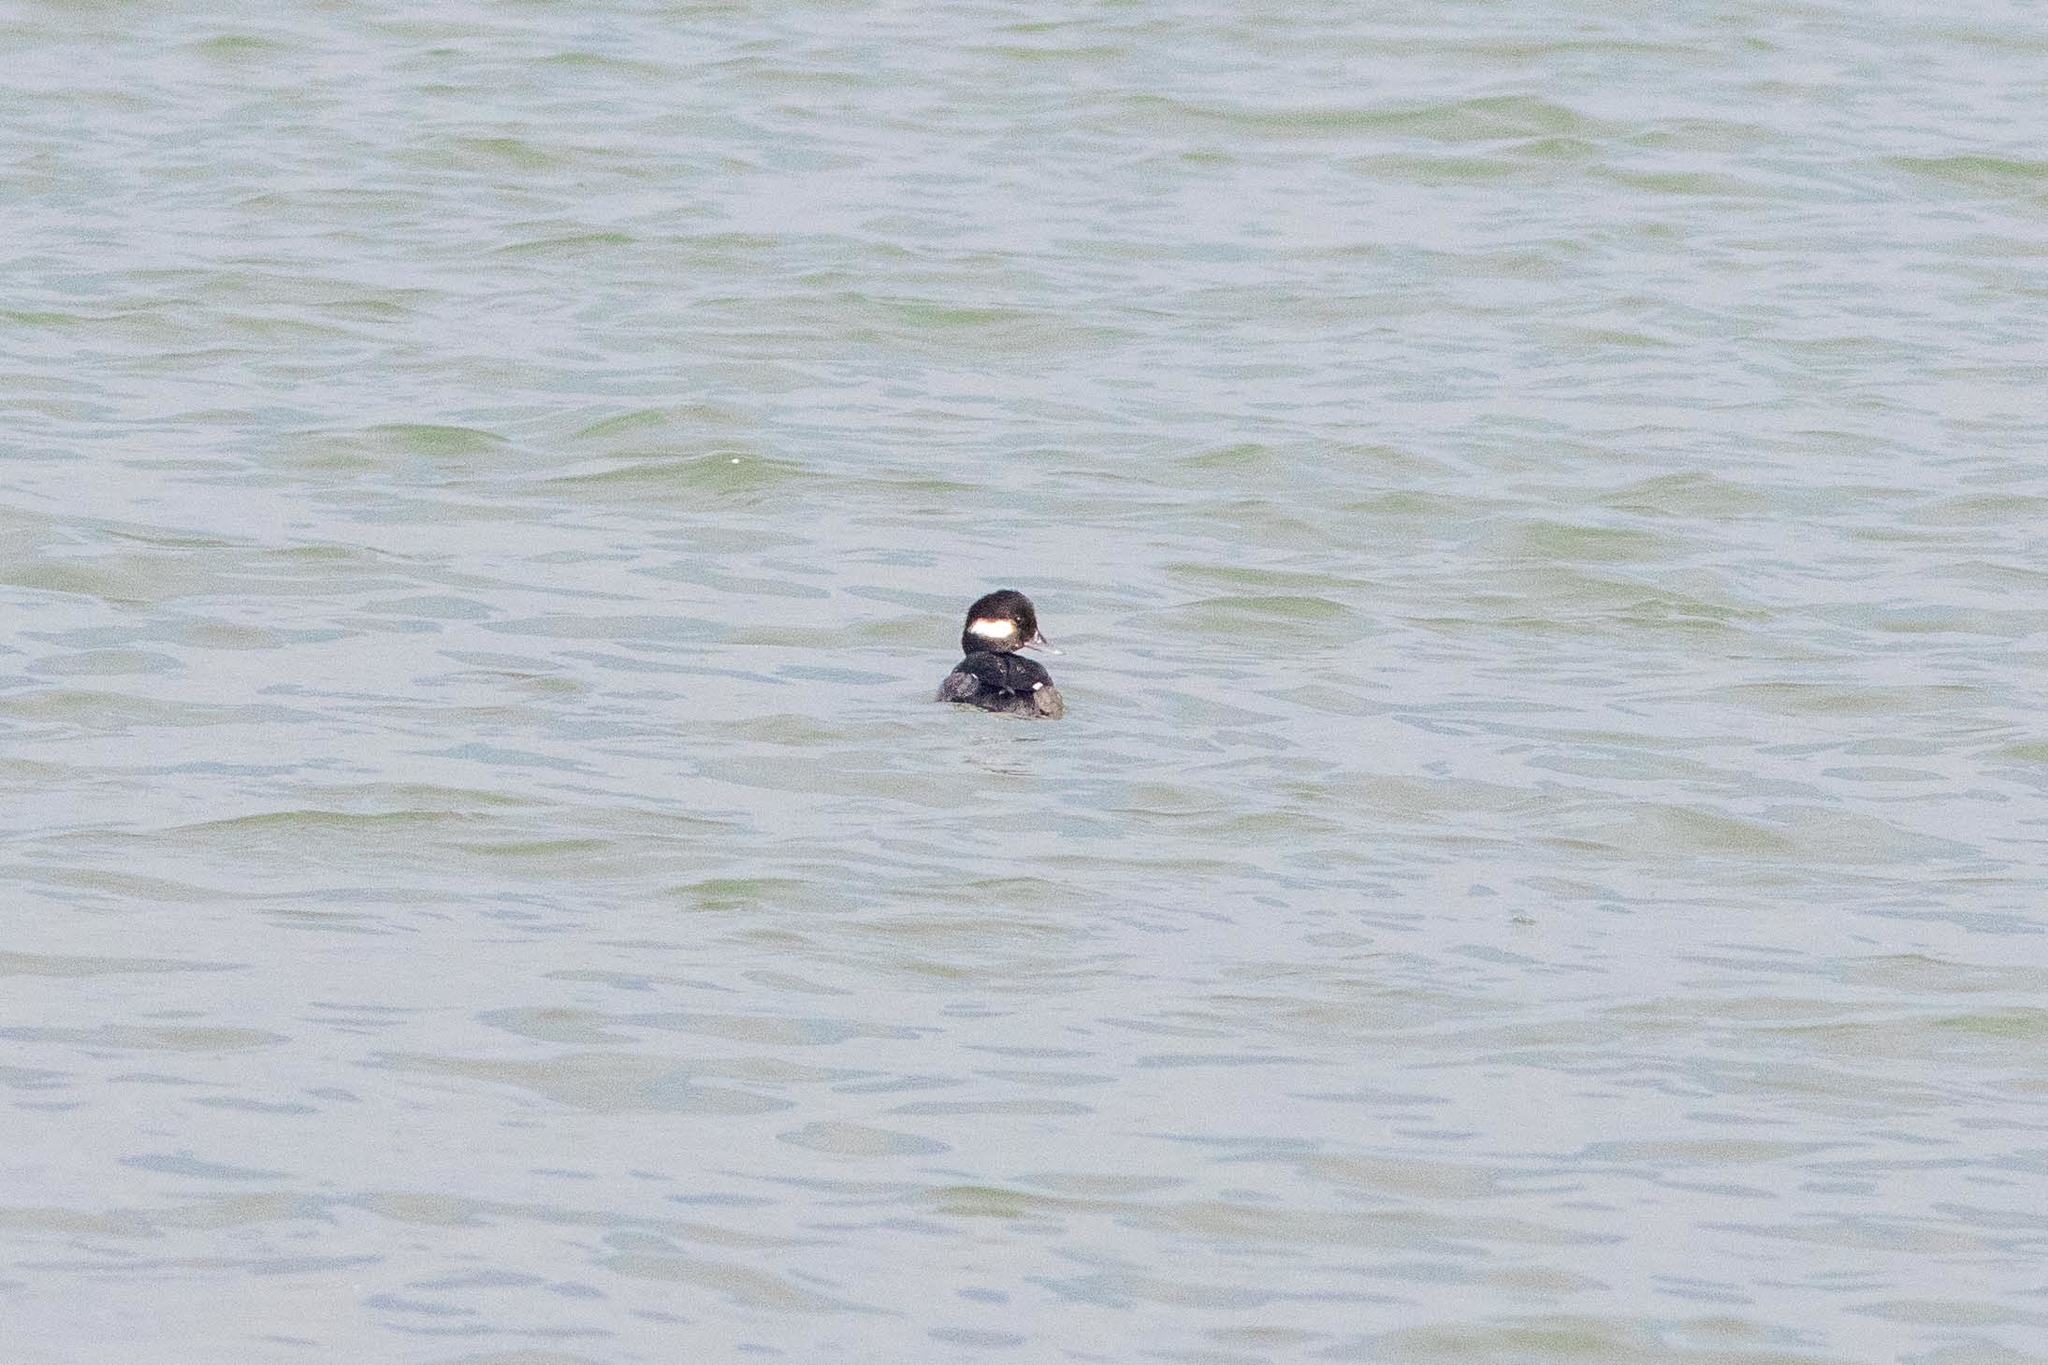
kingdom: Animalia
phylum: Chordata
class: Aves
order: Anseriformes
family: Anatidae
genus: Bucephala
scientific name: Bucephala albeola
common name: Bufflehead
